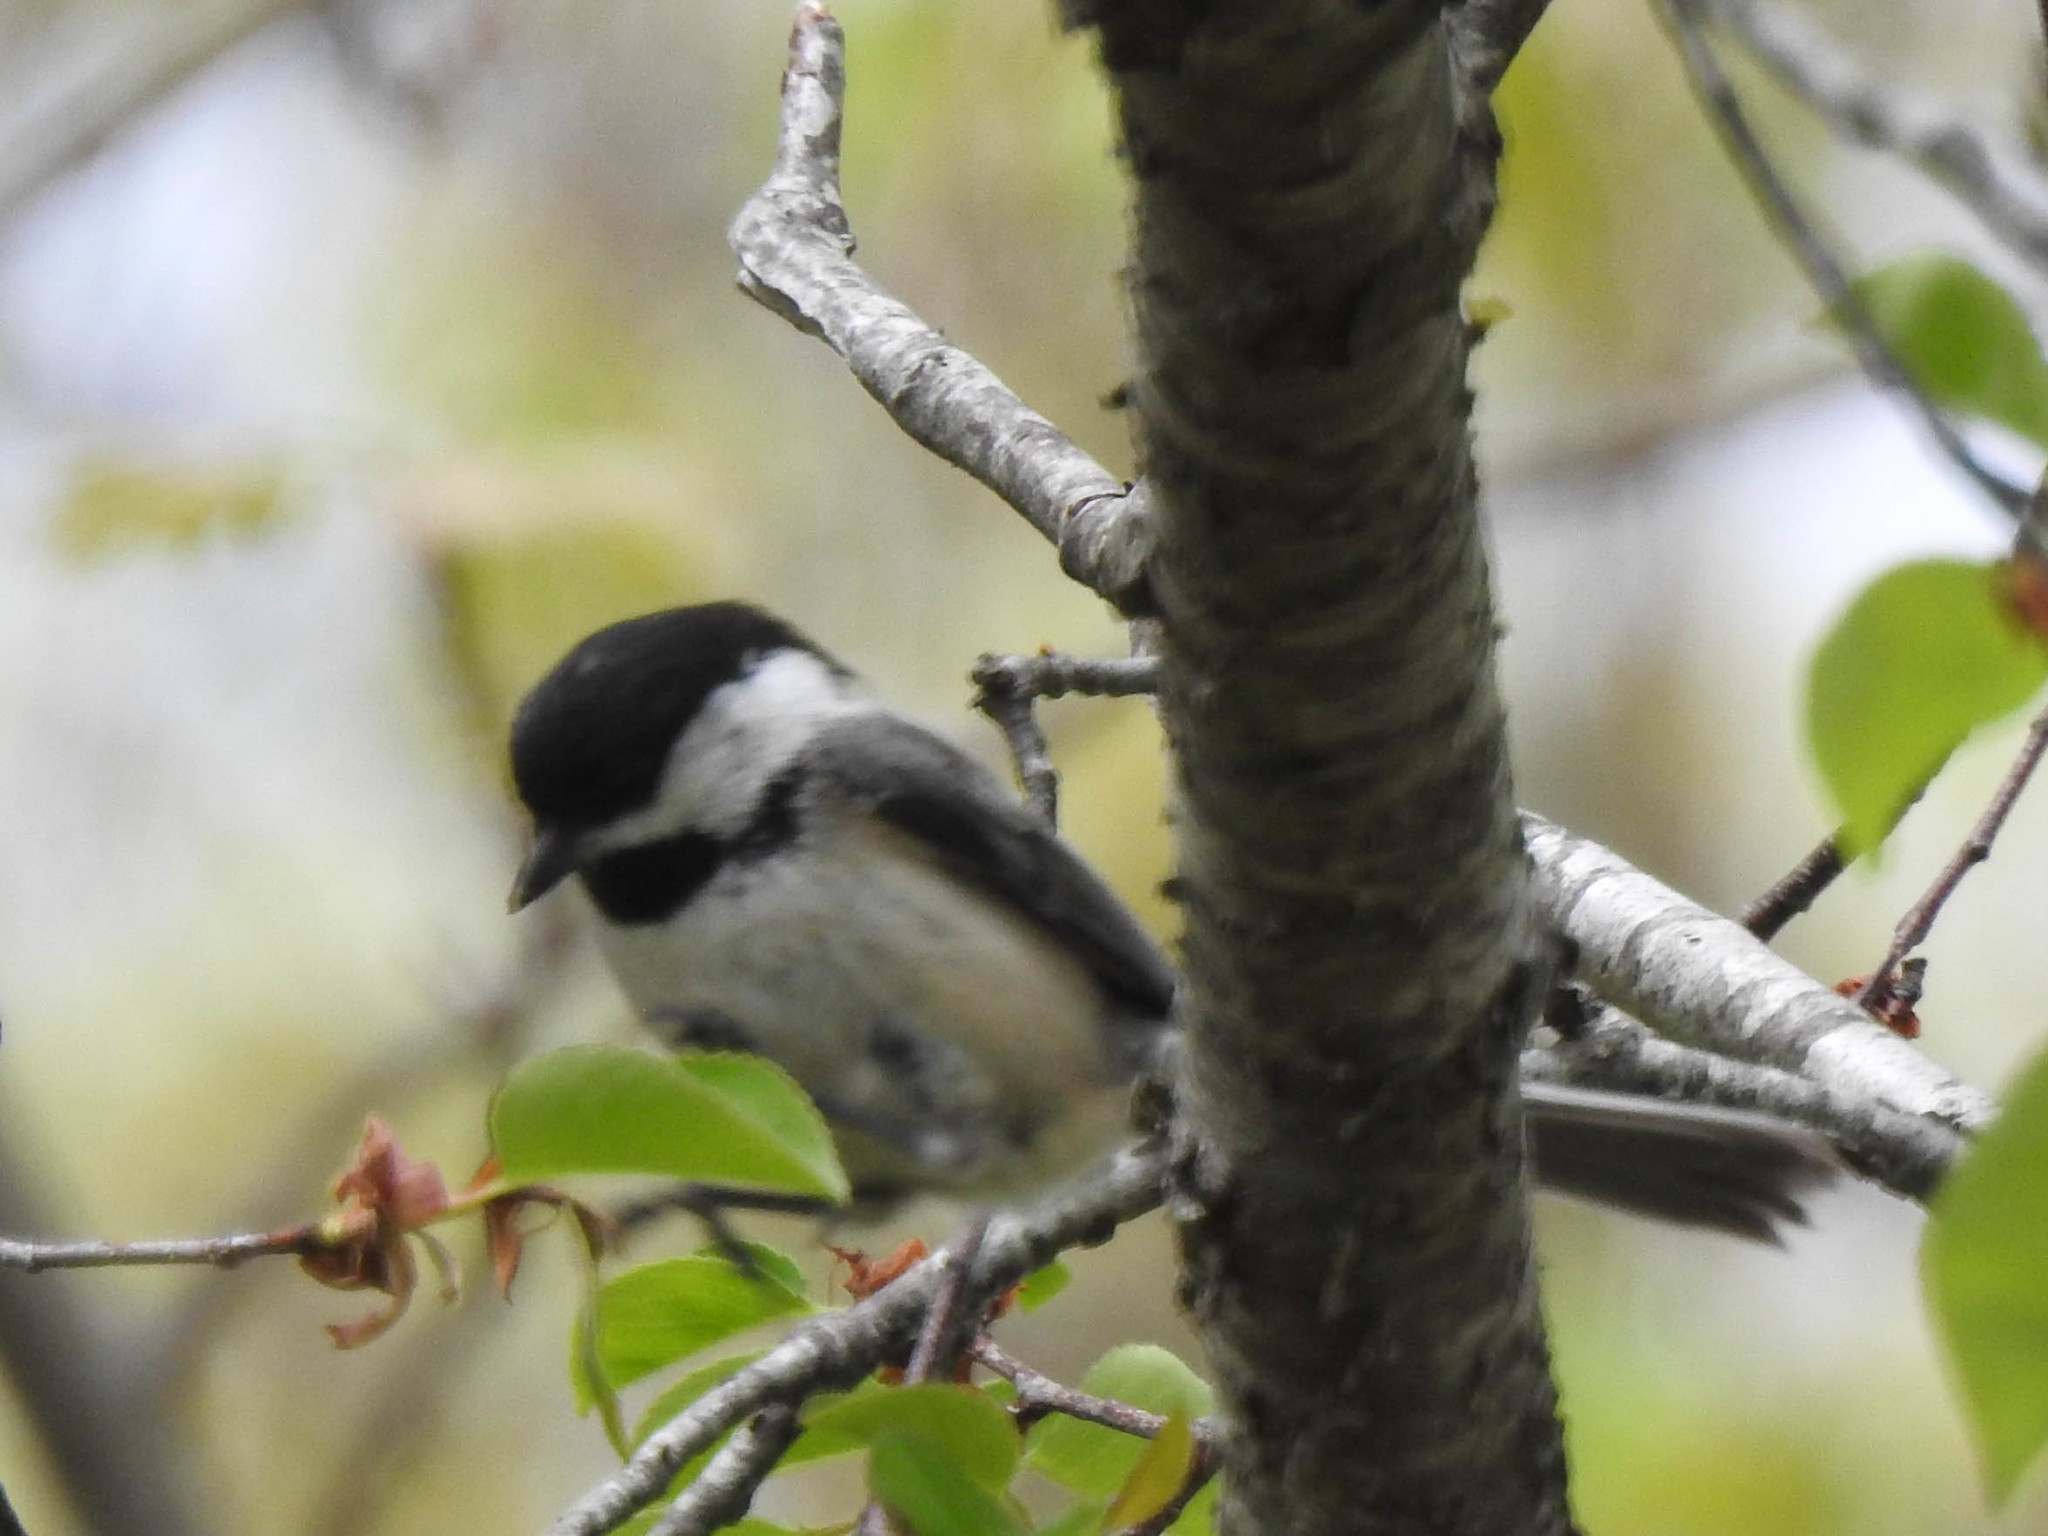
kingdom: Animalia
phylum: Chordata
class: Aves
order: Passeriformes
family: Paridae
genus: Poecile
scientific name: Poecile atricapillus
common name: Black-capped chickadee
